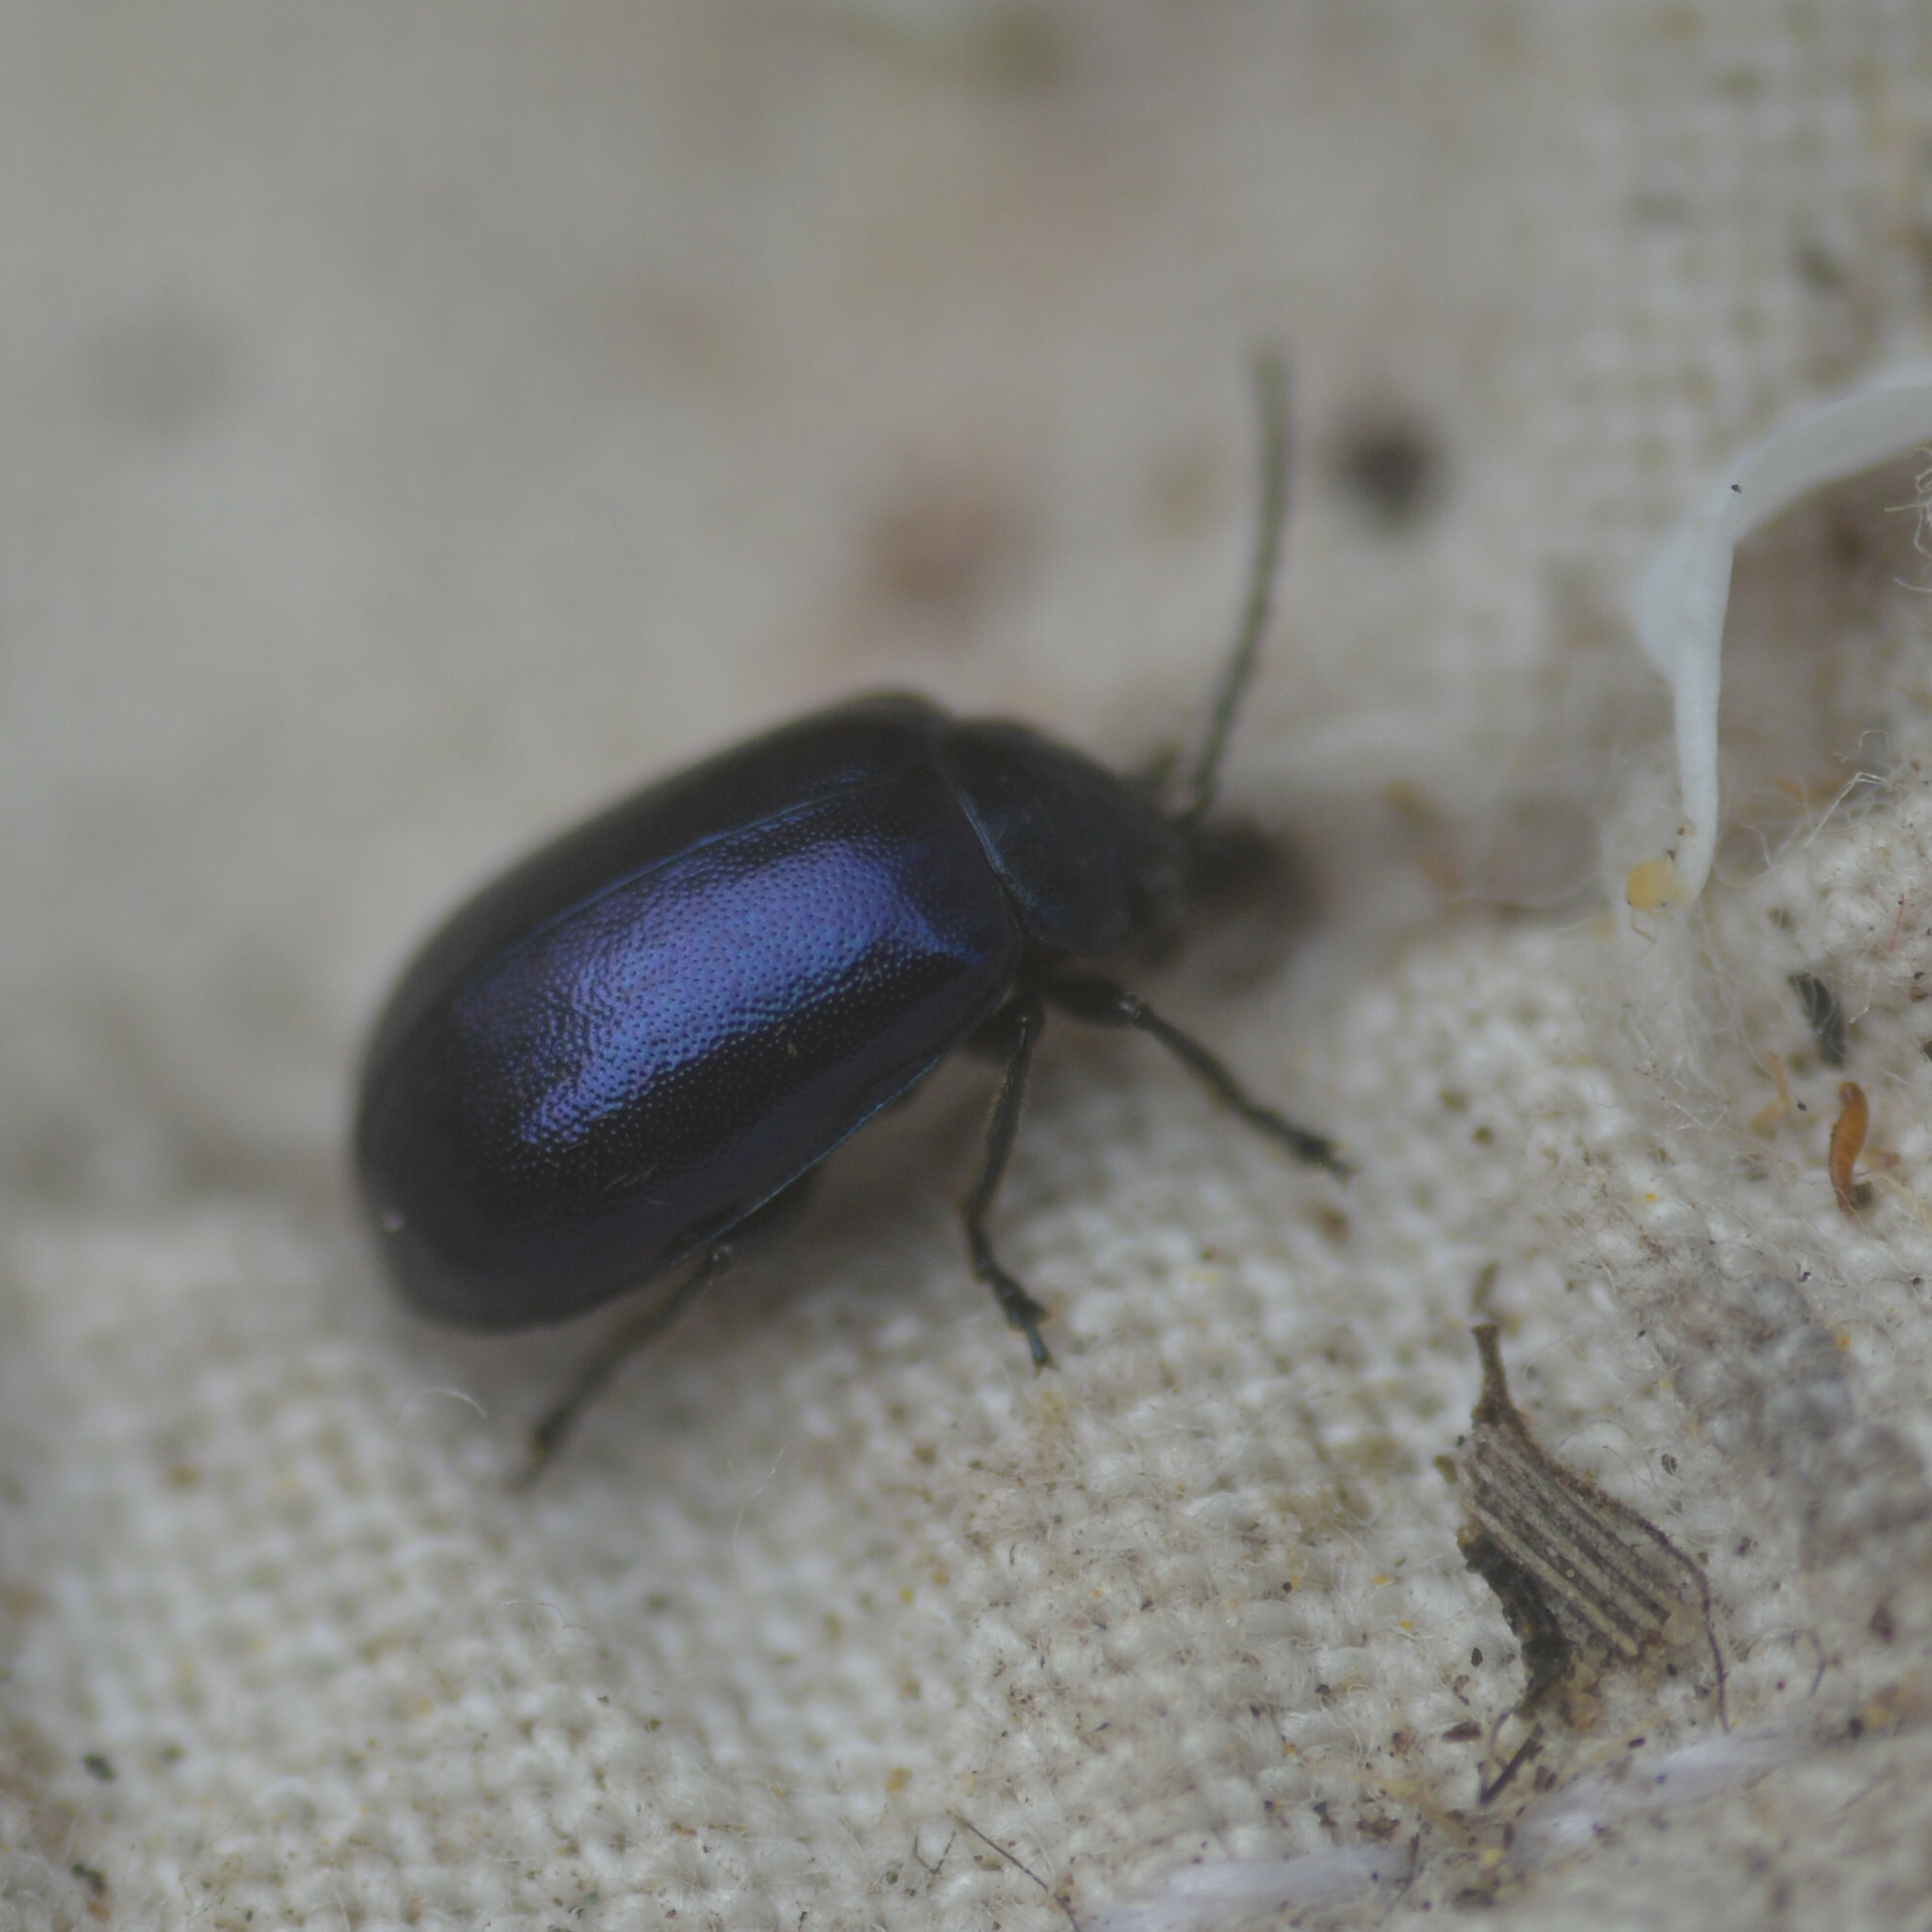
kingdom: Animalia
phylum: Arthropoda
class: Insecta
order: Coleoptera
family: Chrysomelidae
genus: Agelastica
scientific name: Agelastica alni
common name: Alder leaf beetle
